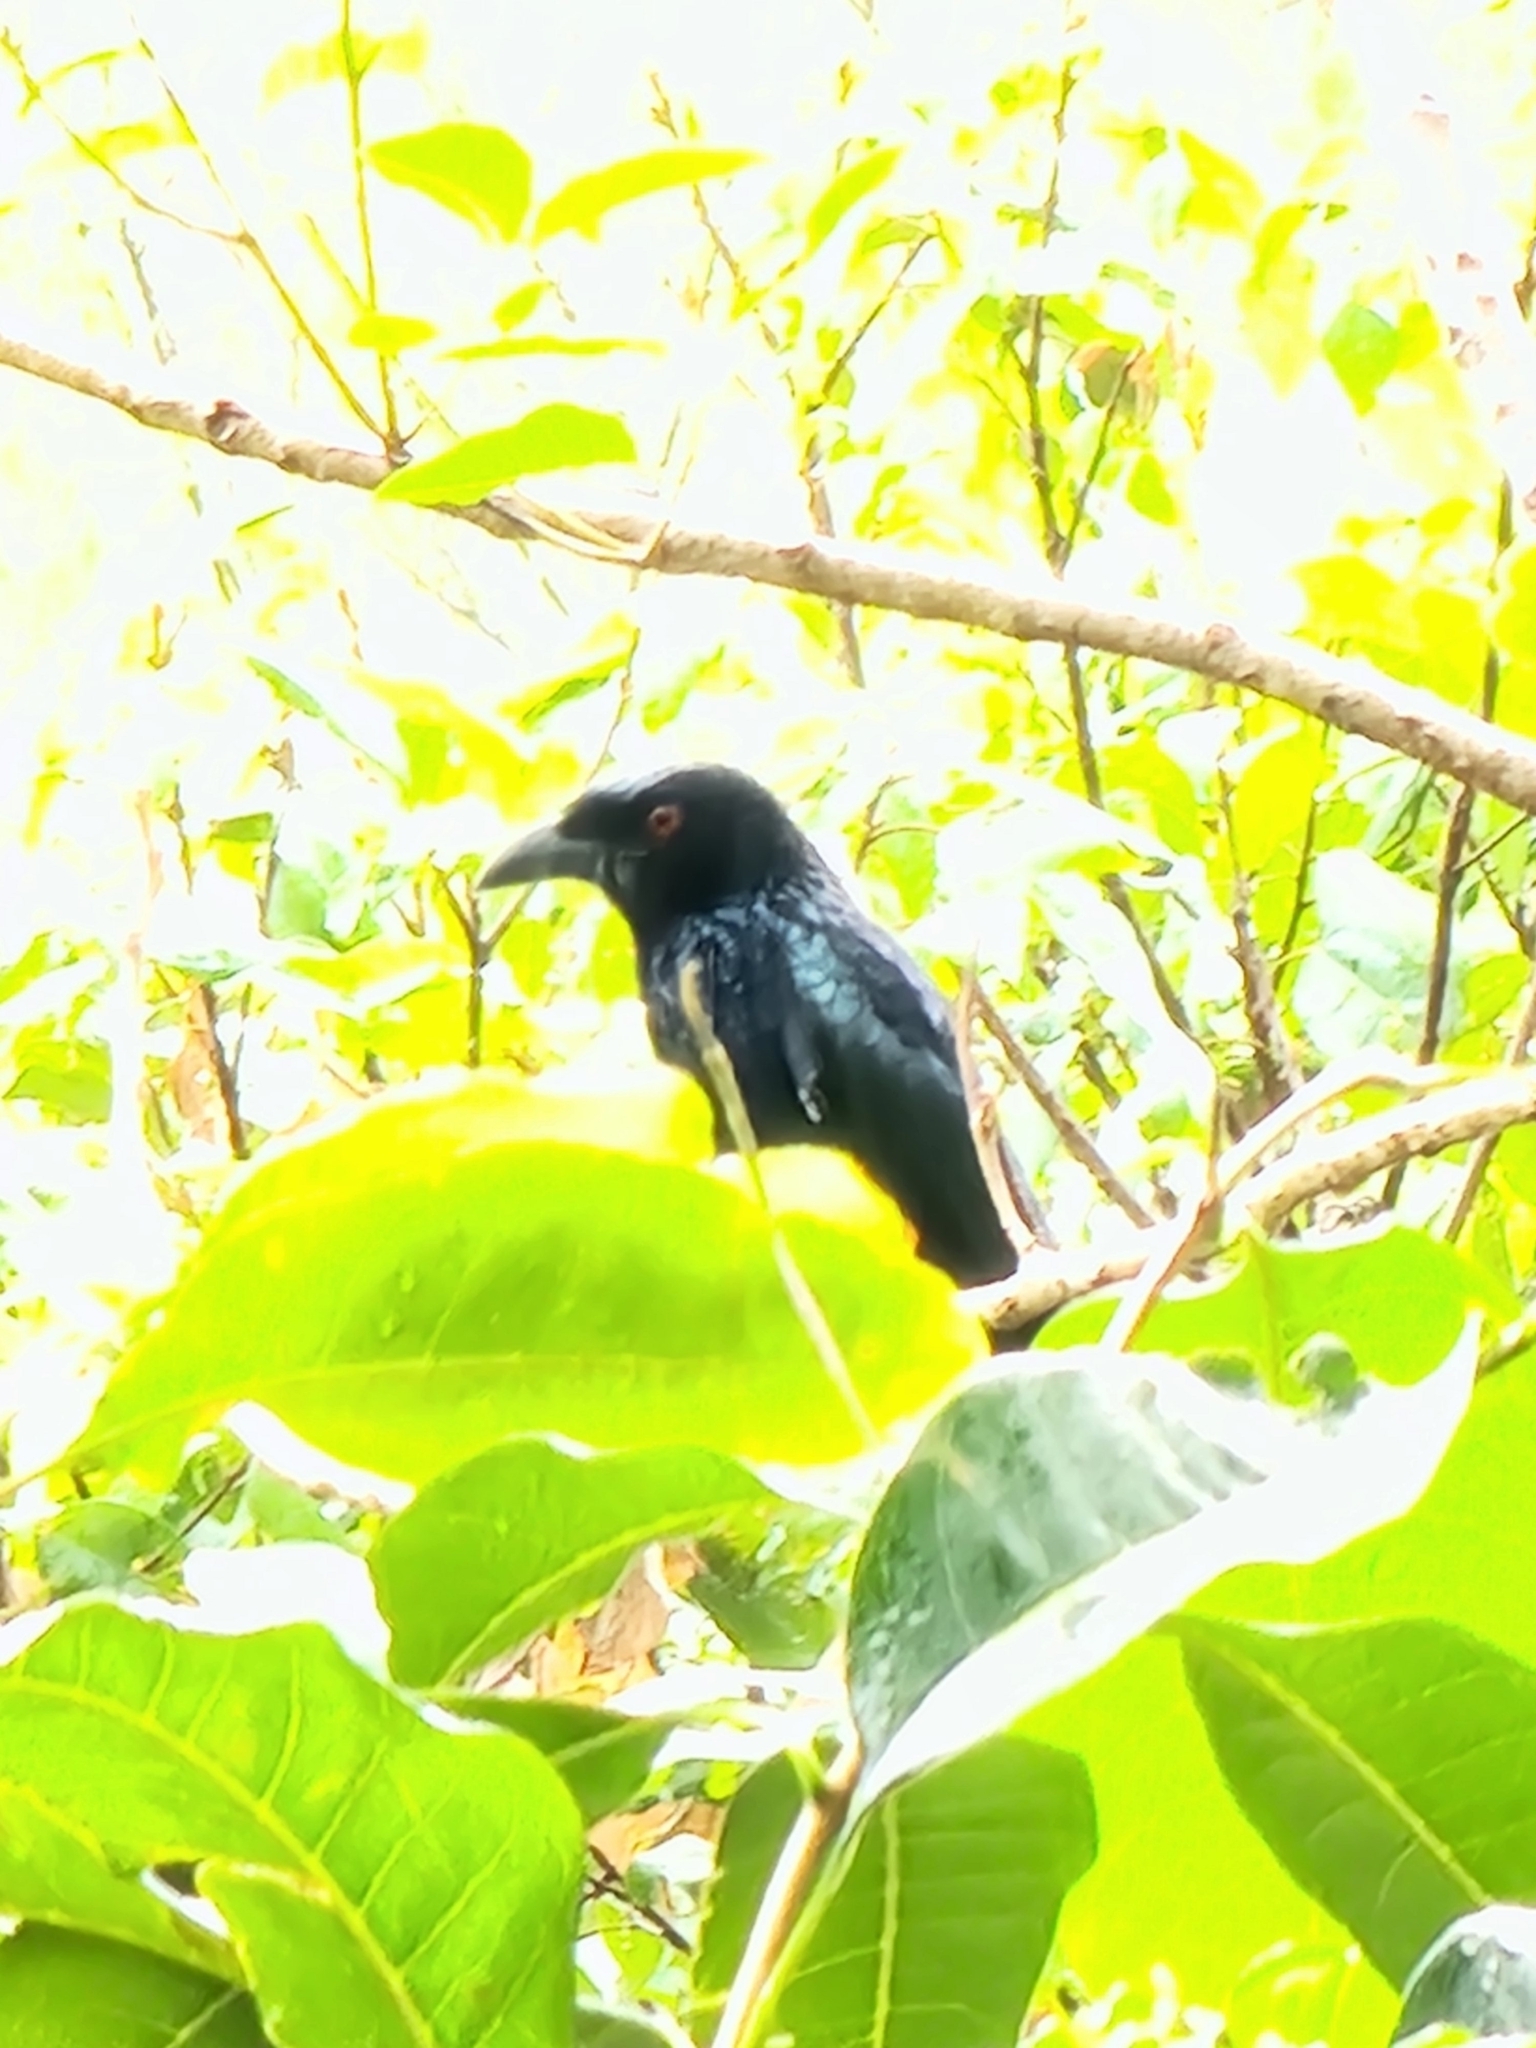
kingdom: Animalia
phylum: Chordata
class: Aves
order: Passeriformes
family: Dicruridae
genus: Dicrurus
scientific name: Dicrurus bracteatus
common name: Spangled drongo
